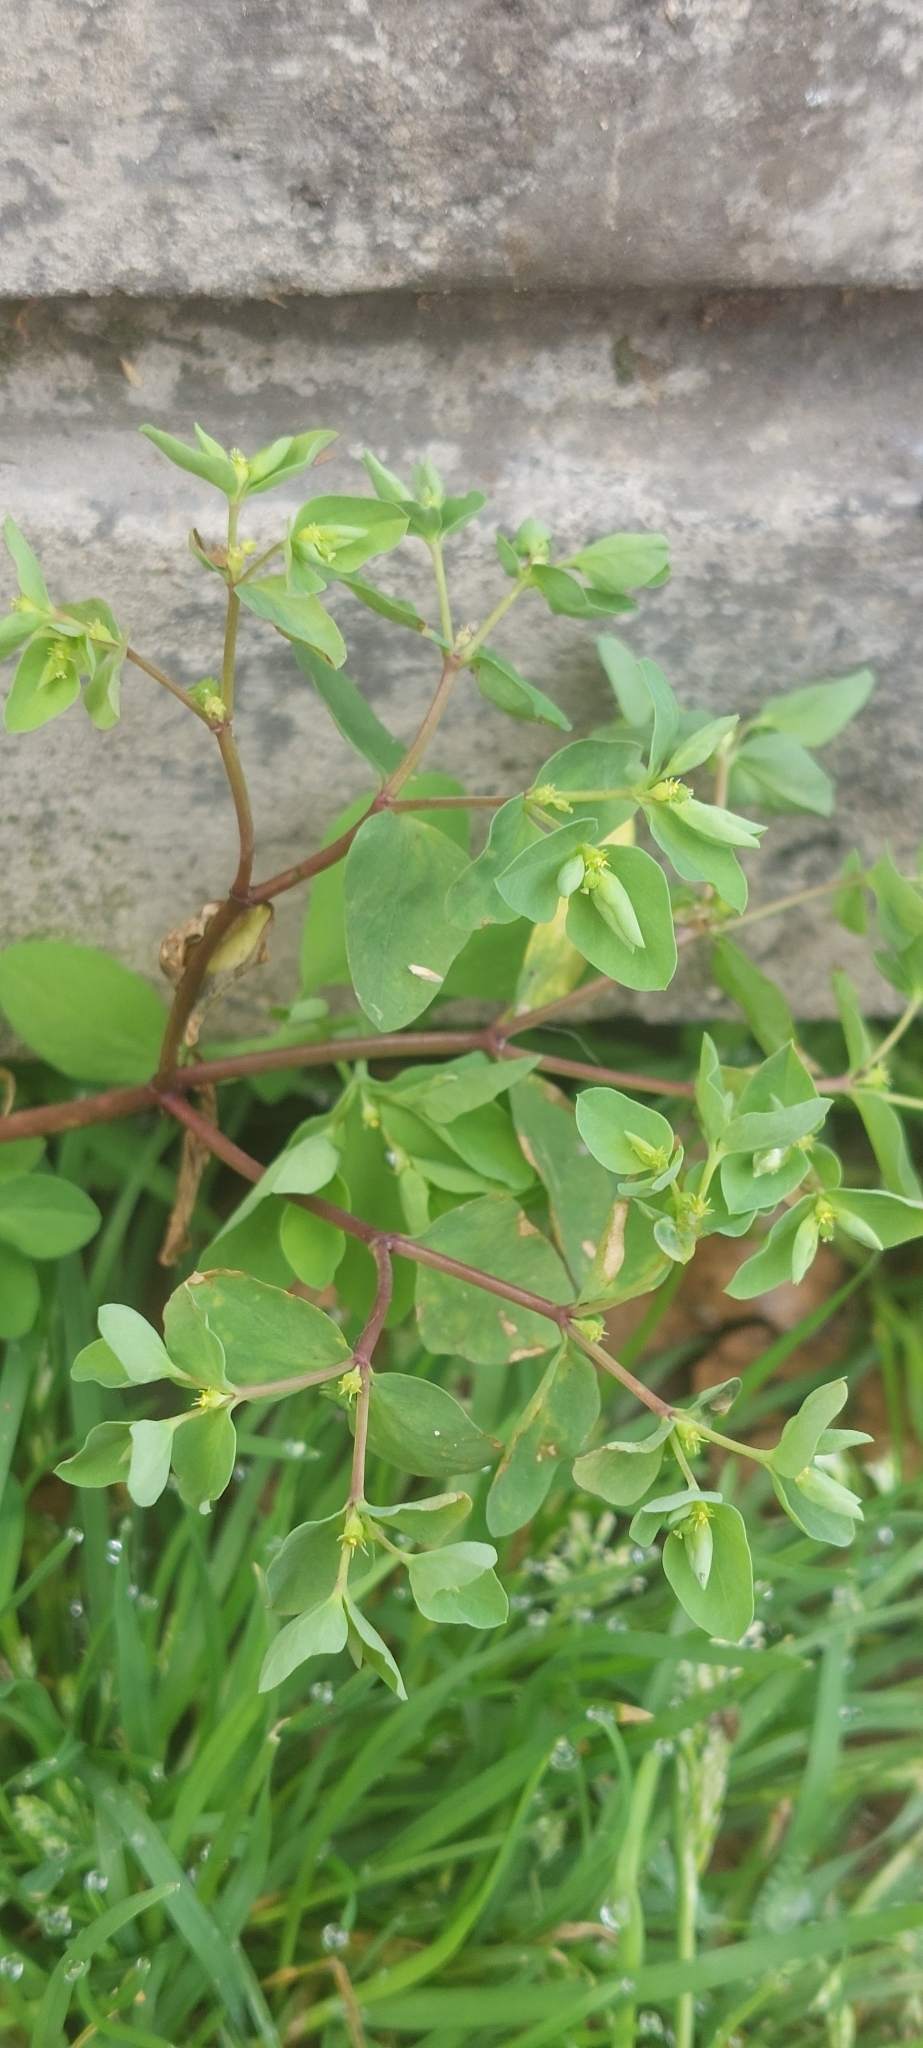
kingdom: Plantae
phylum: Tracheophyta
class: Magnoliopsida
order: Malpighiales
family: Euphorbiaceae
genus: Euphorbia
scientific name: Euphorbia peplus
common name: Petty spurge
